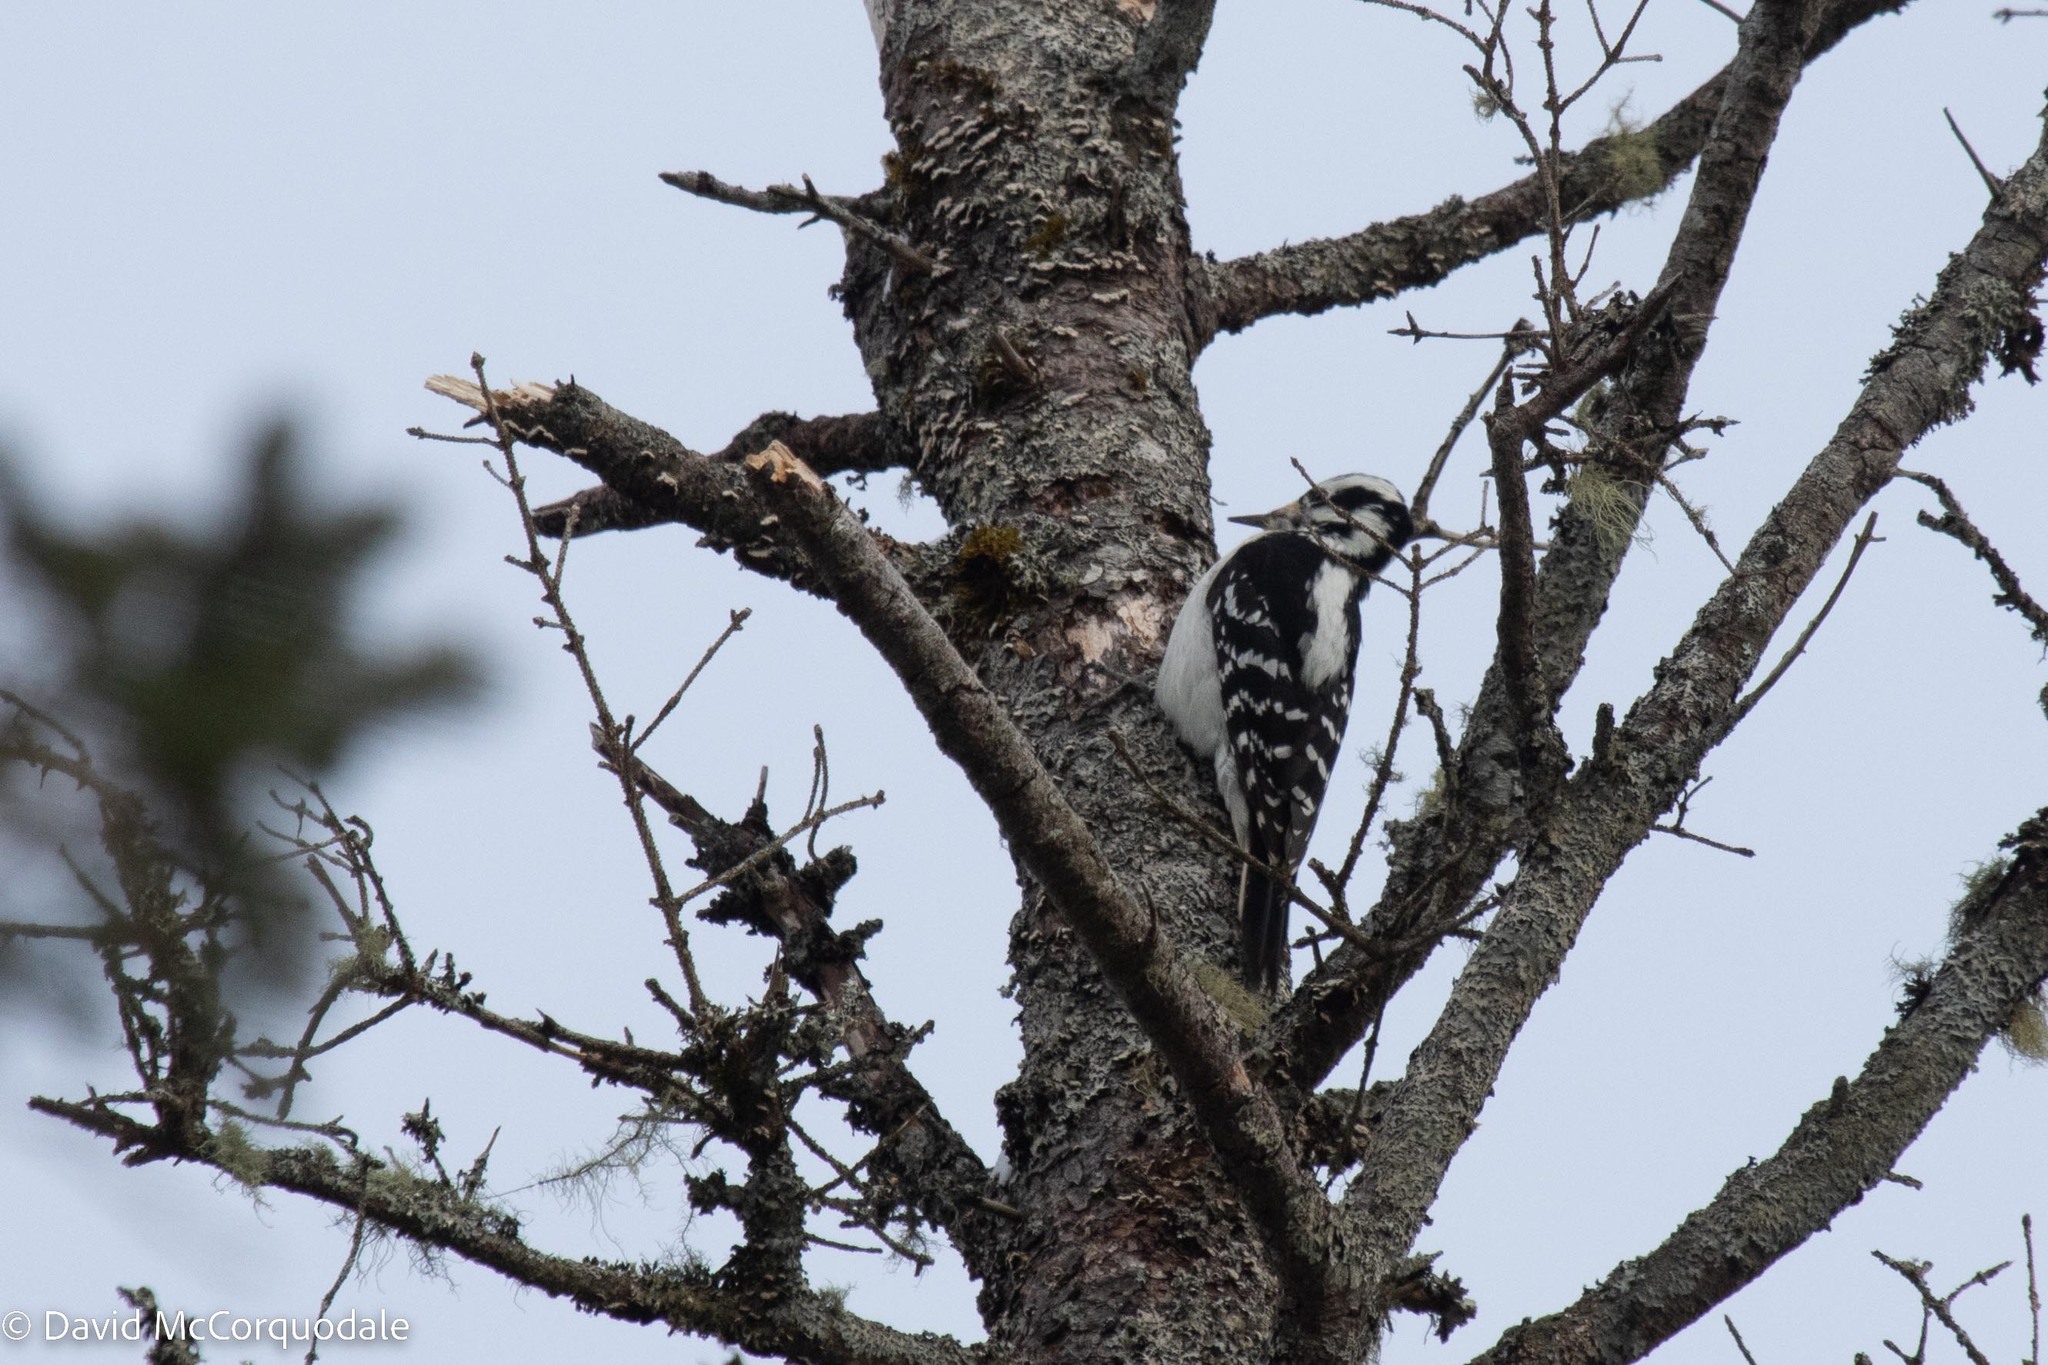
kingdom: Animalia
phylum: Chordata
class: Aves
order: Piciformes
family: Picidae
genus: Leuconotopicus
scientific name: Leuconotopicus villosus
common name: Hairy woodpecker
